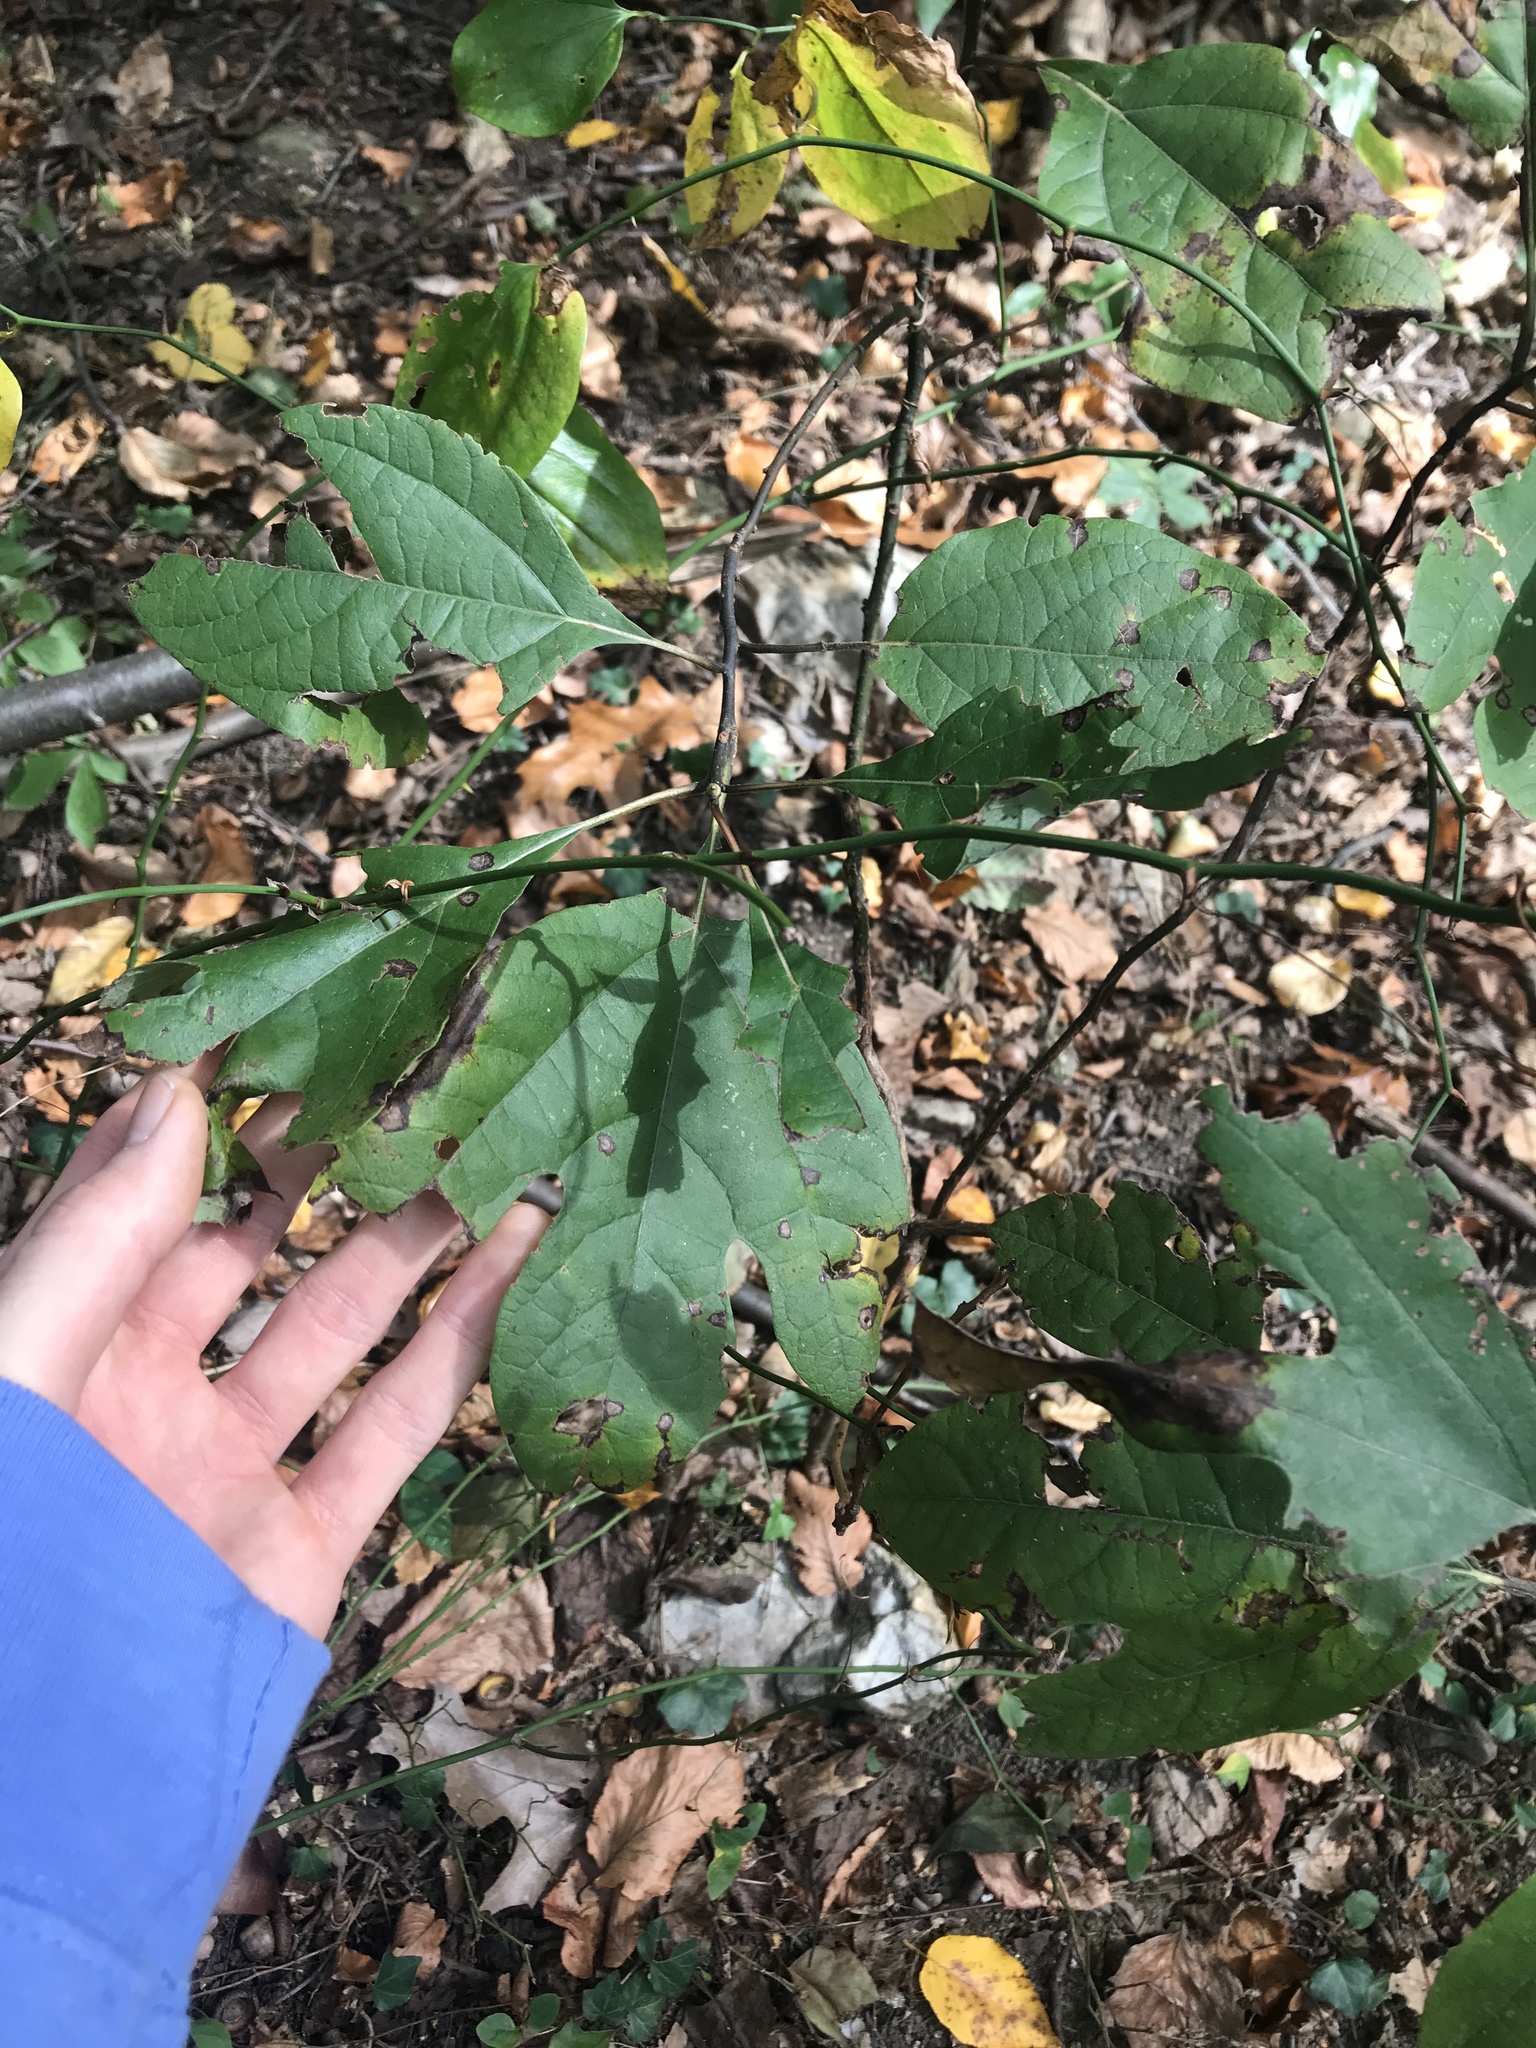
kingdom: Plantae
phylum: Tracheophyta
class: Magnoliopsida
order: Laurales
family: Lauraceae
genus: Sassafras
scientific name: Sassafras albidum
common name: Sassafras
